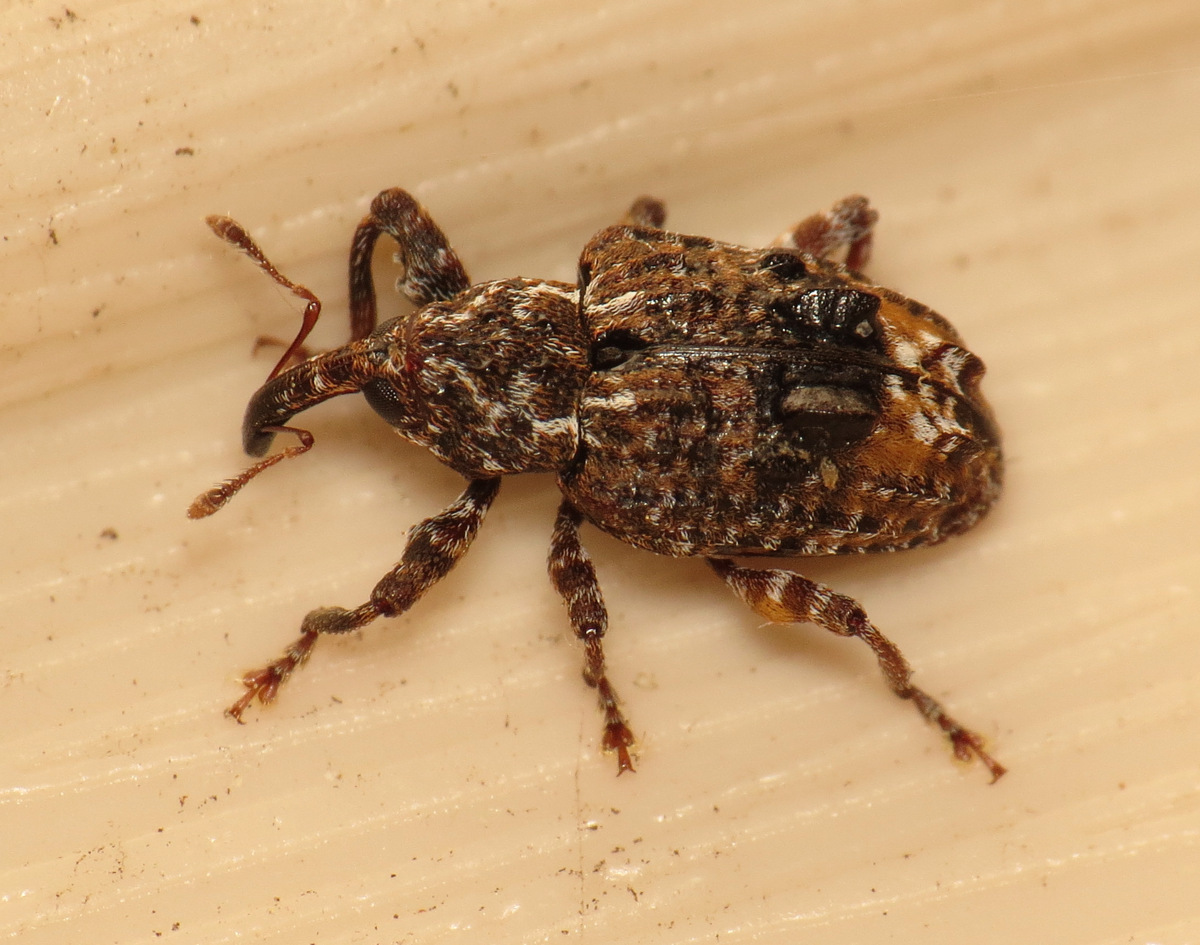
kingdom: Animalia
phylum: Arthropoda
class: Insecta
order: Coleoptera
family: Curculionidae
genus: Conotrachelus
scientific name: Conotrachelus nenuphar
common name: Plum curculio
